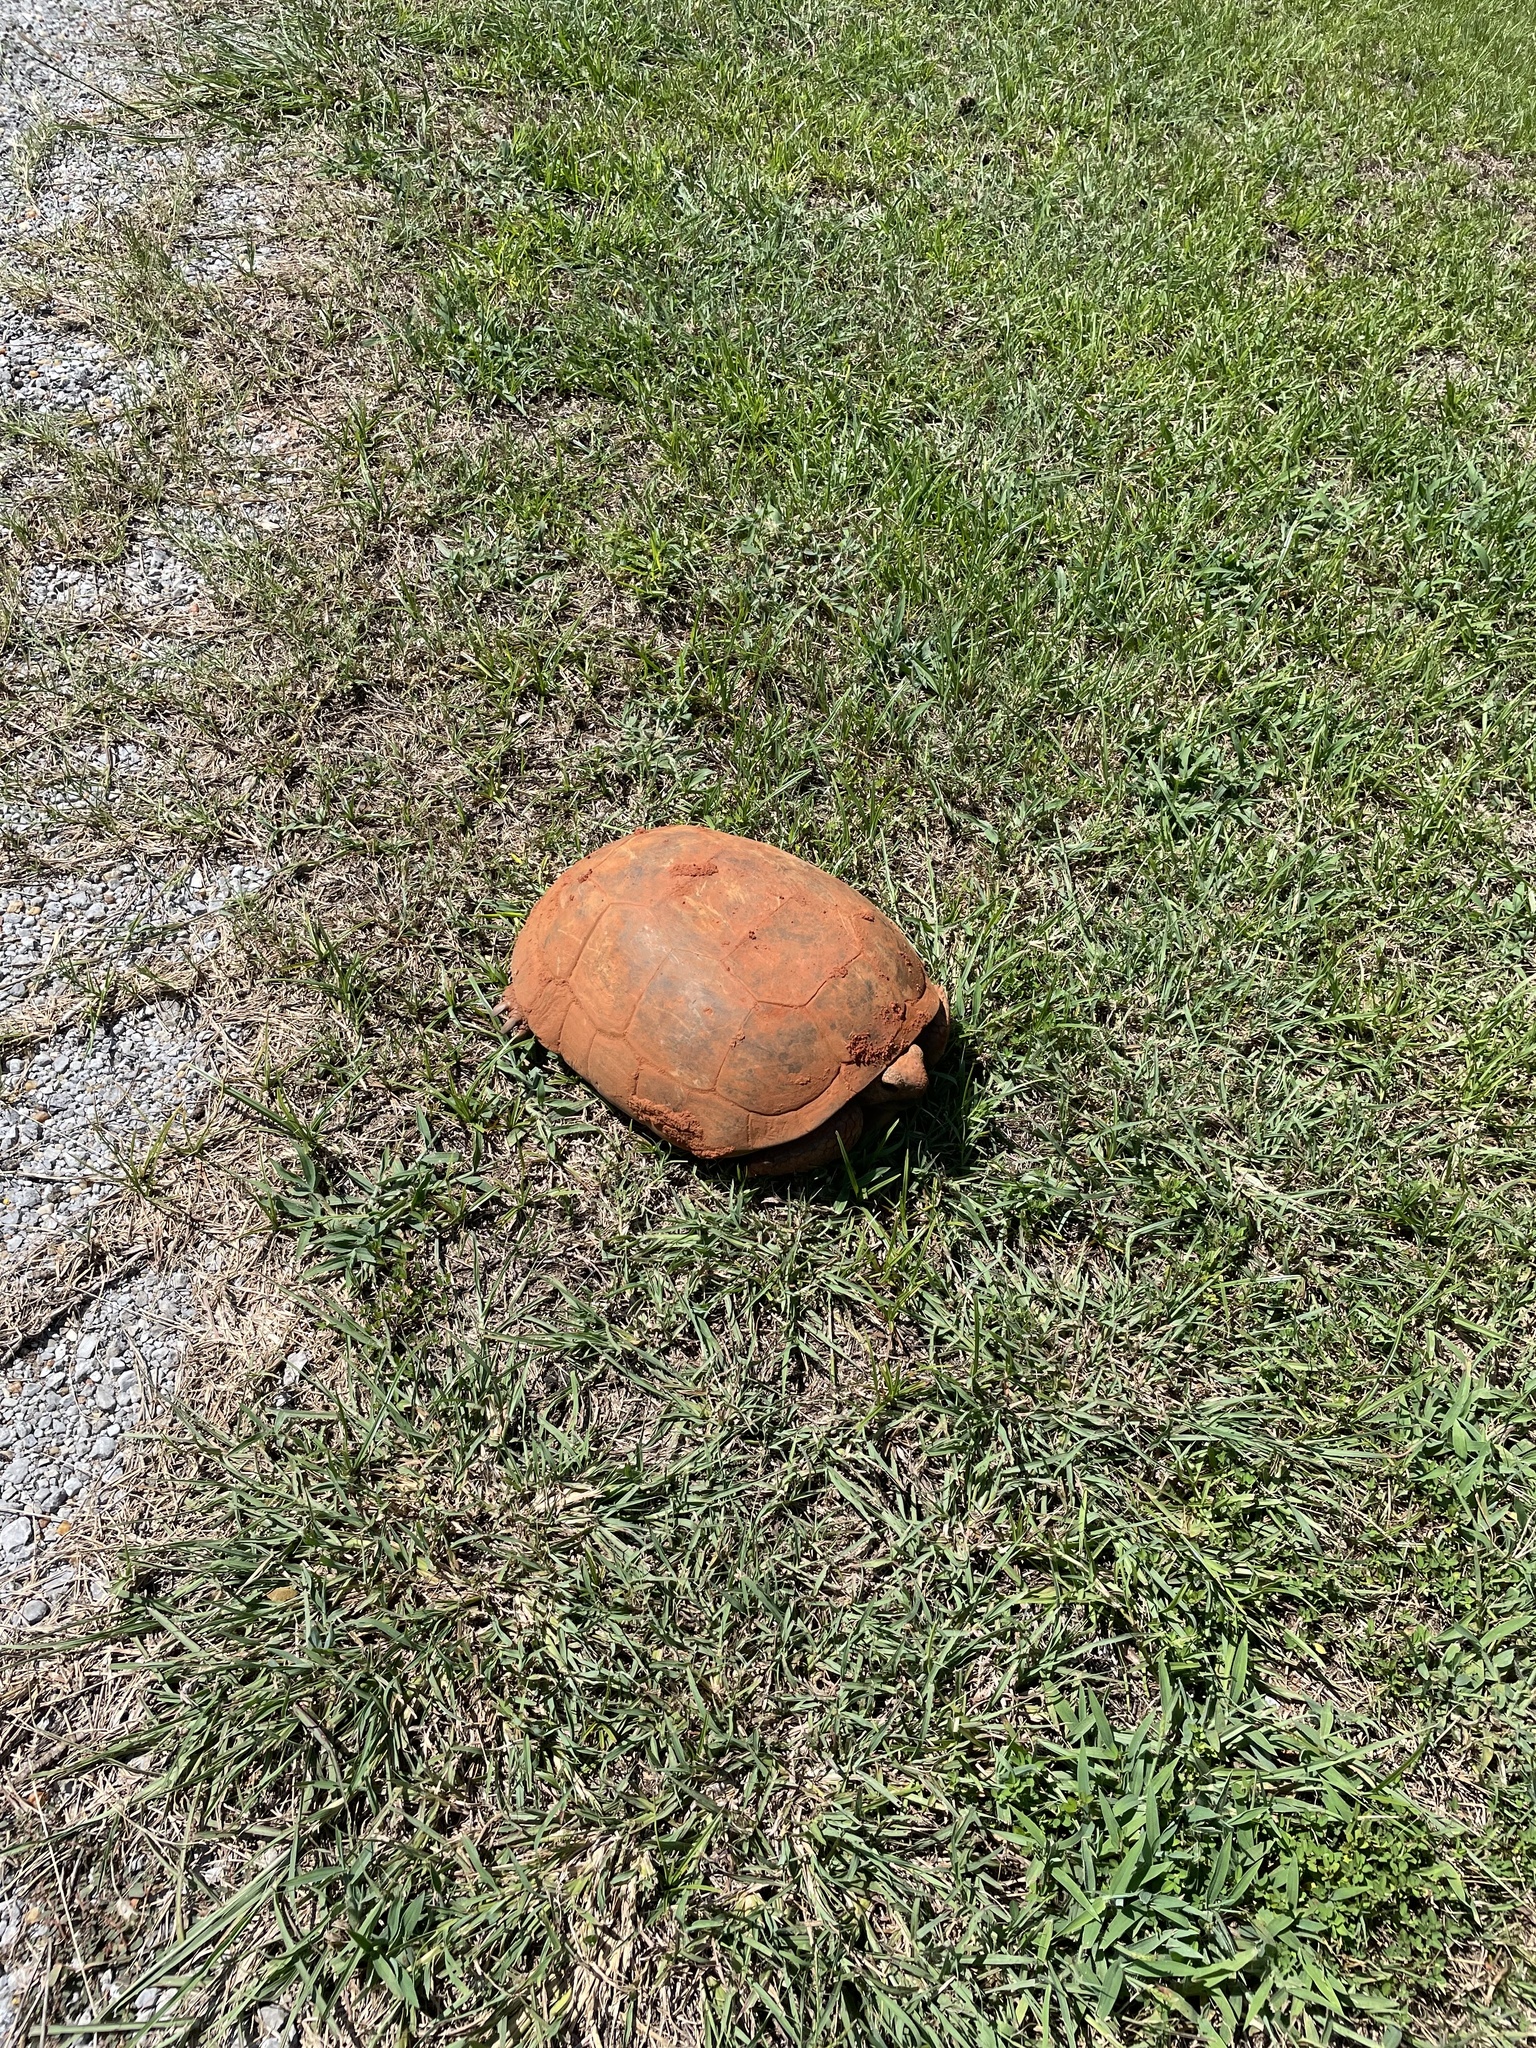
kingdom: Animalia
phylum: Chordata
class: Testudines
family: Testudinidae
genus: Gopherus
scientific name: Gopherus polyphemus
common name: Florida gopher tortoise
